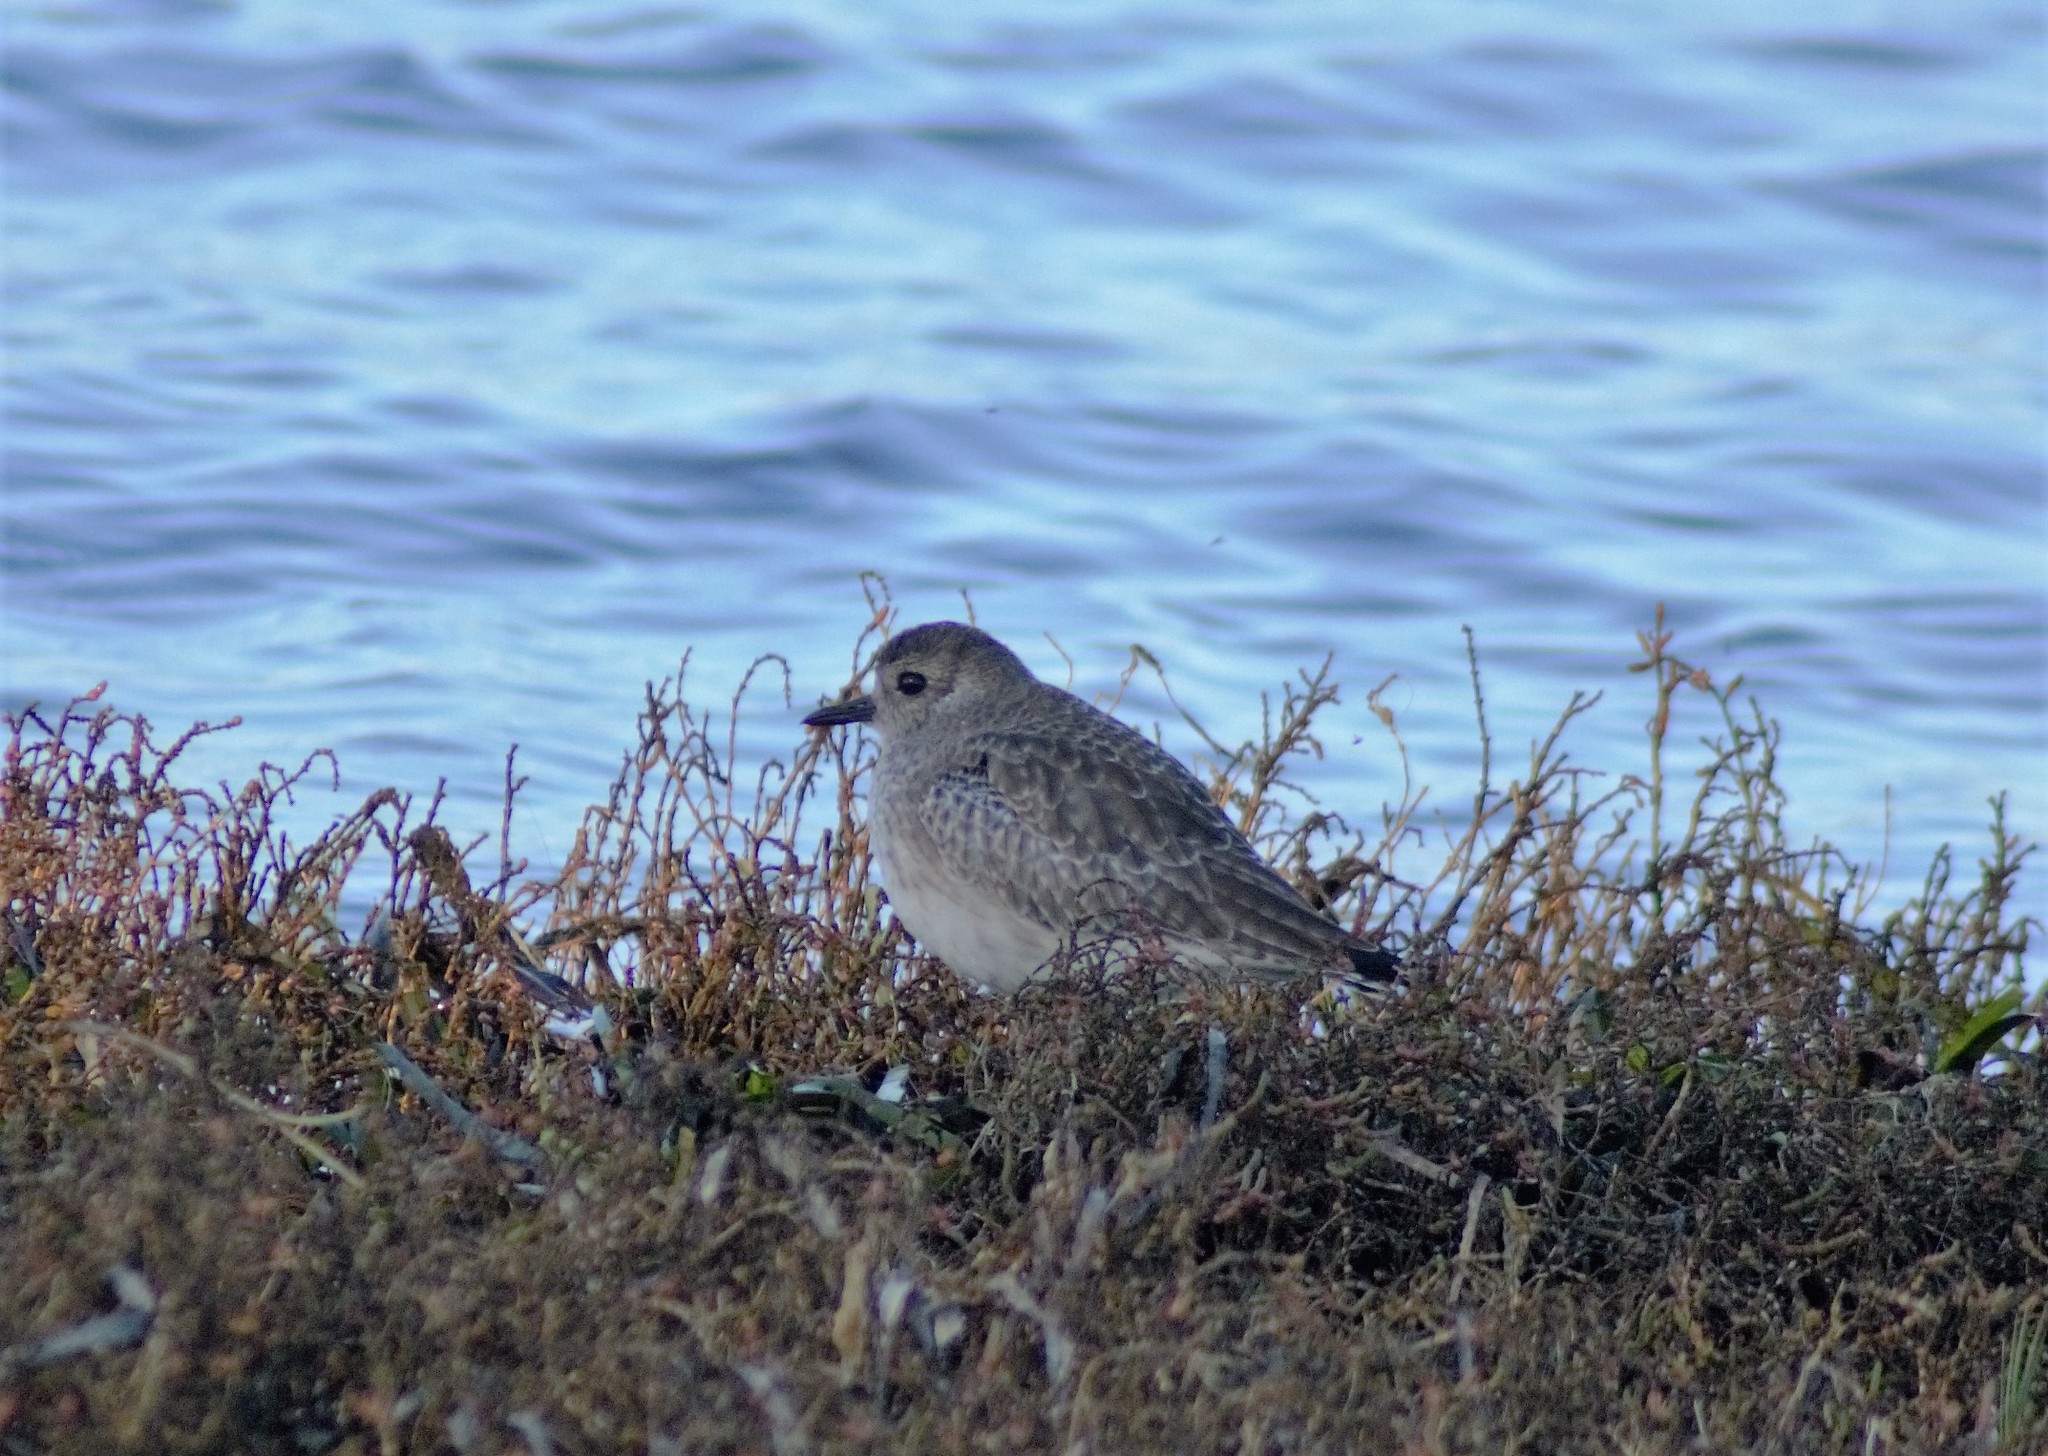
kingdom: Animalia
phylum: Chordata
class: Aves
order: Charadriiformes
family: Charadriidae
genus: Pluvialis
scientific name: Pluvialis squatarola
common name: Grey plover
